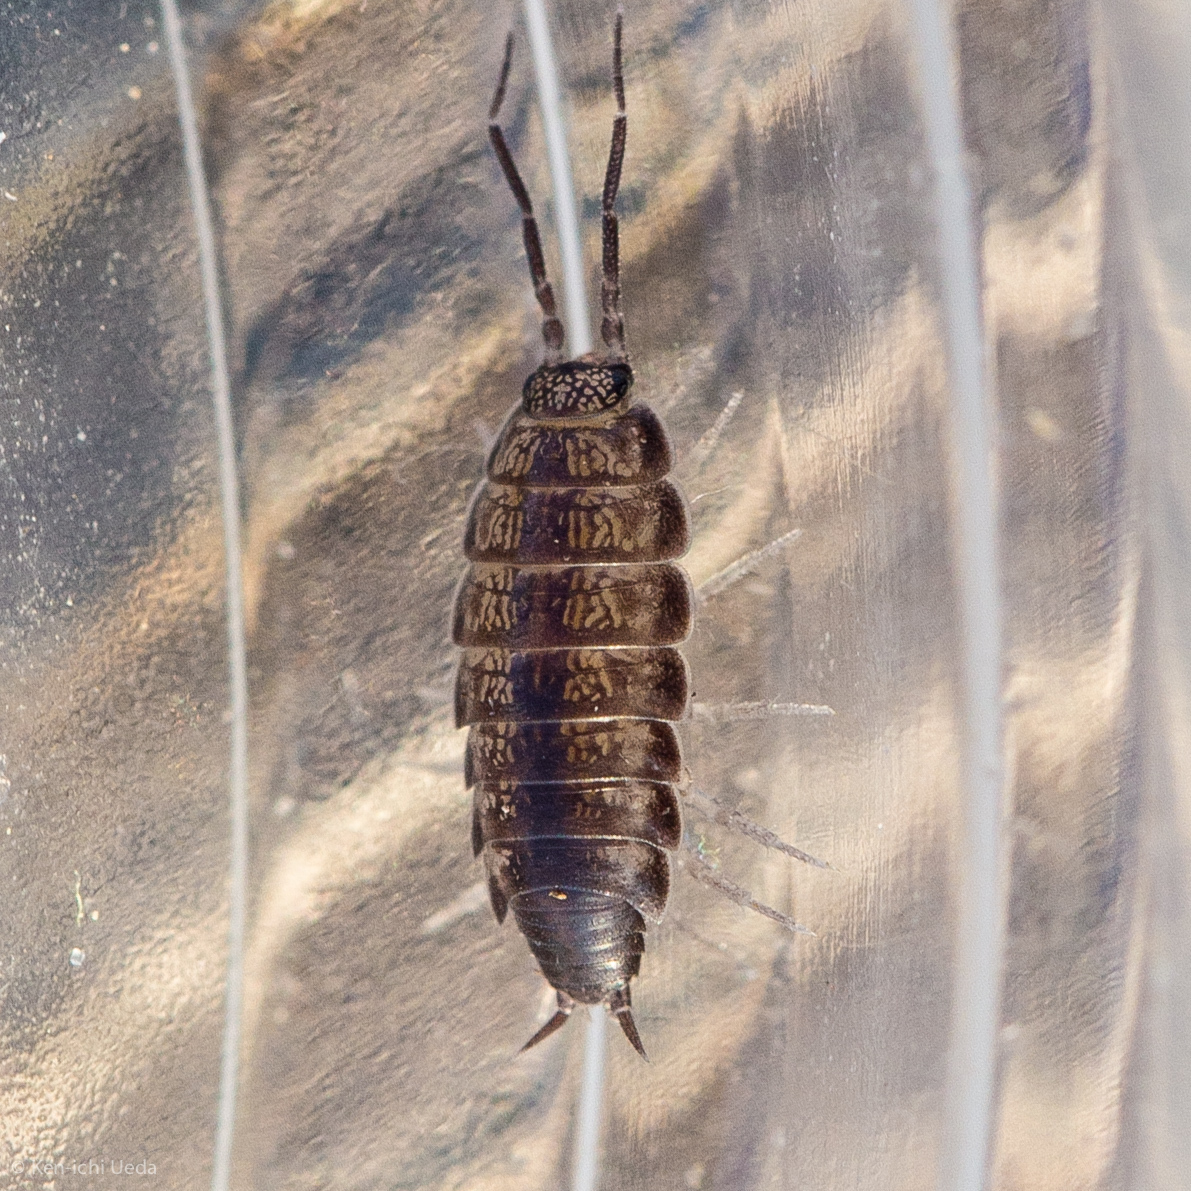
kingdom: Animalia
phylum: Arthropoda
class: Malacostraca
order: Isopoda
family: Halophilosciidae
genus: Littorophiloscia
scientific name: Littorophiloscia richardsonae
